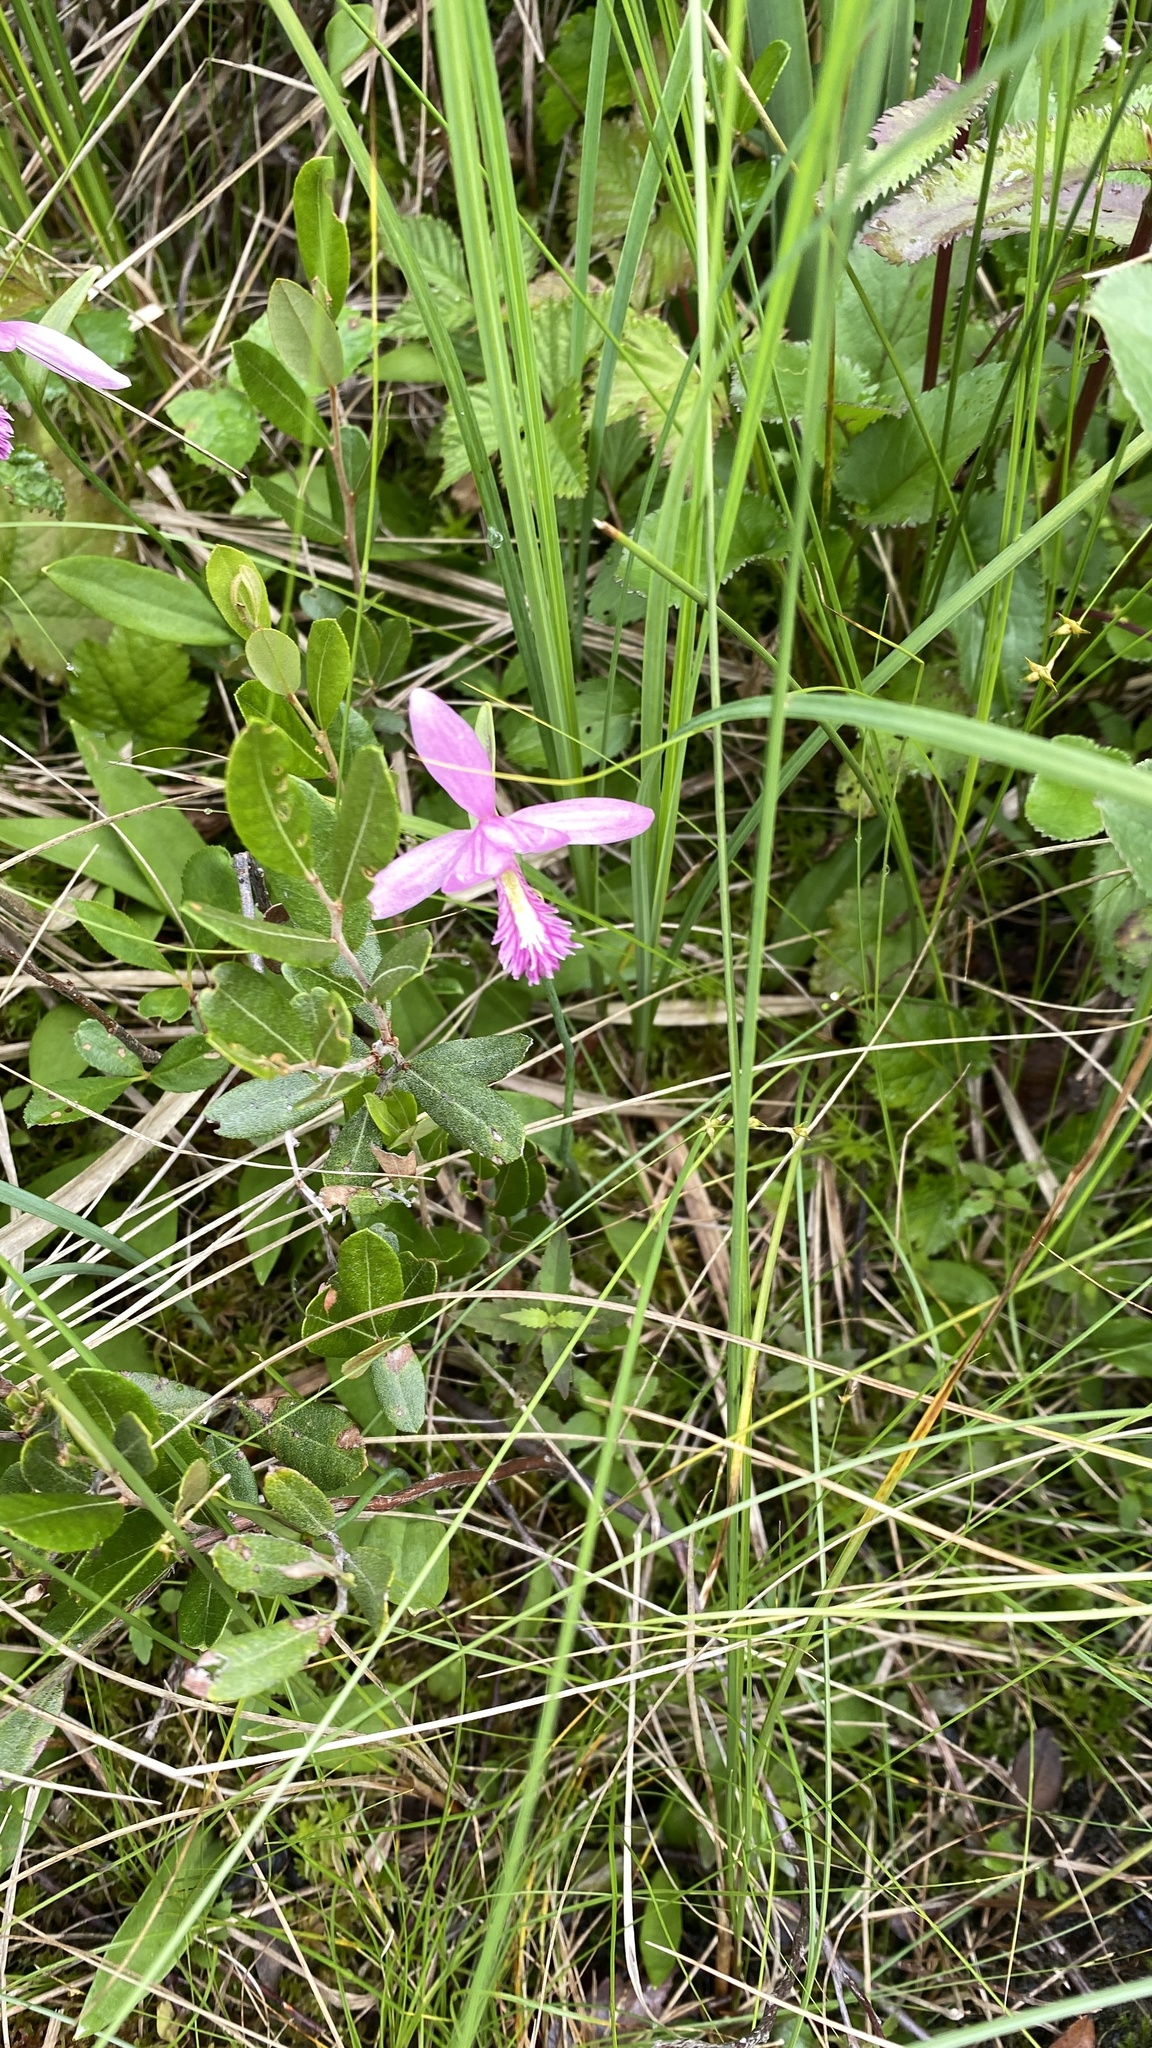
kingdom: Plantae
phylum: Tracheophyta
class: Liliopsida
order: Asparagales
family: Orchidaceae
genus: Pogonia
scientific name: Pogonia ophioglossoides
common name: Rose pogonia
